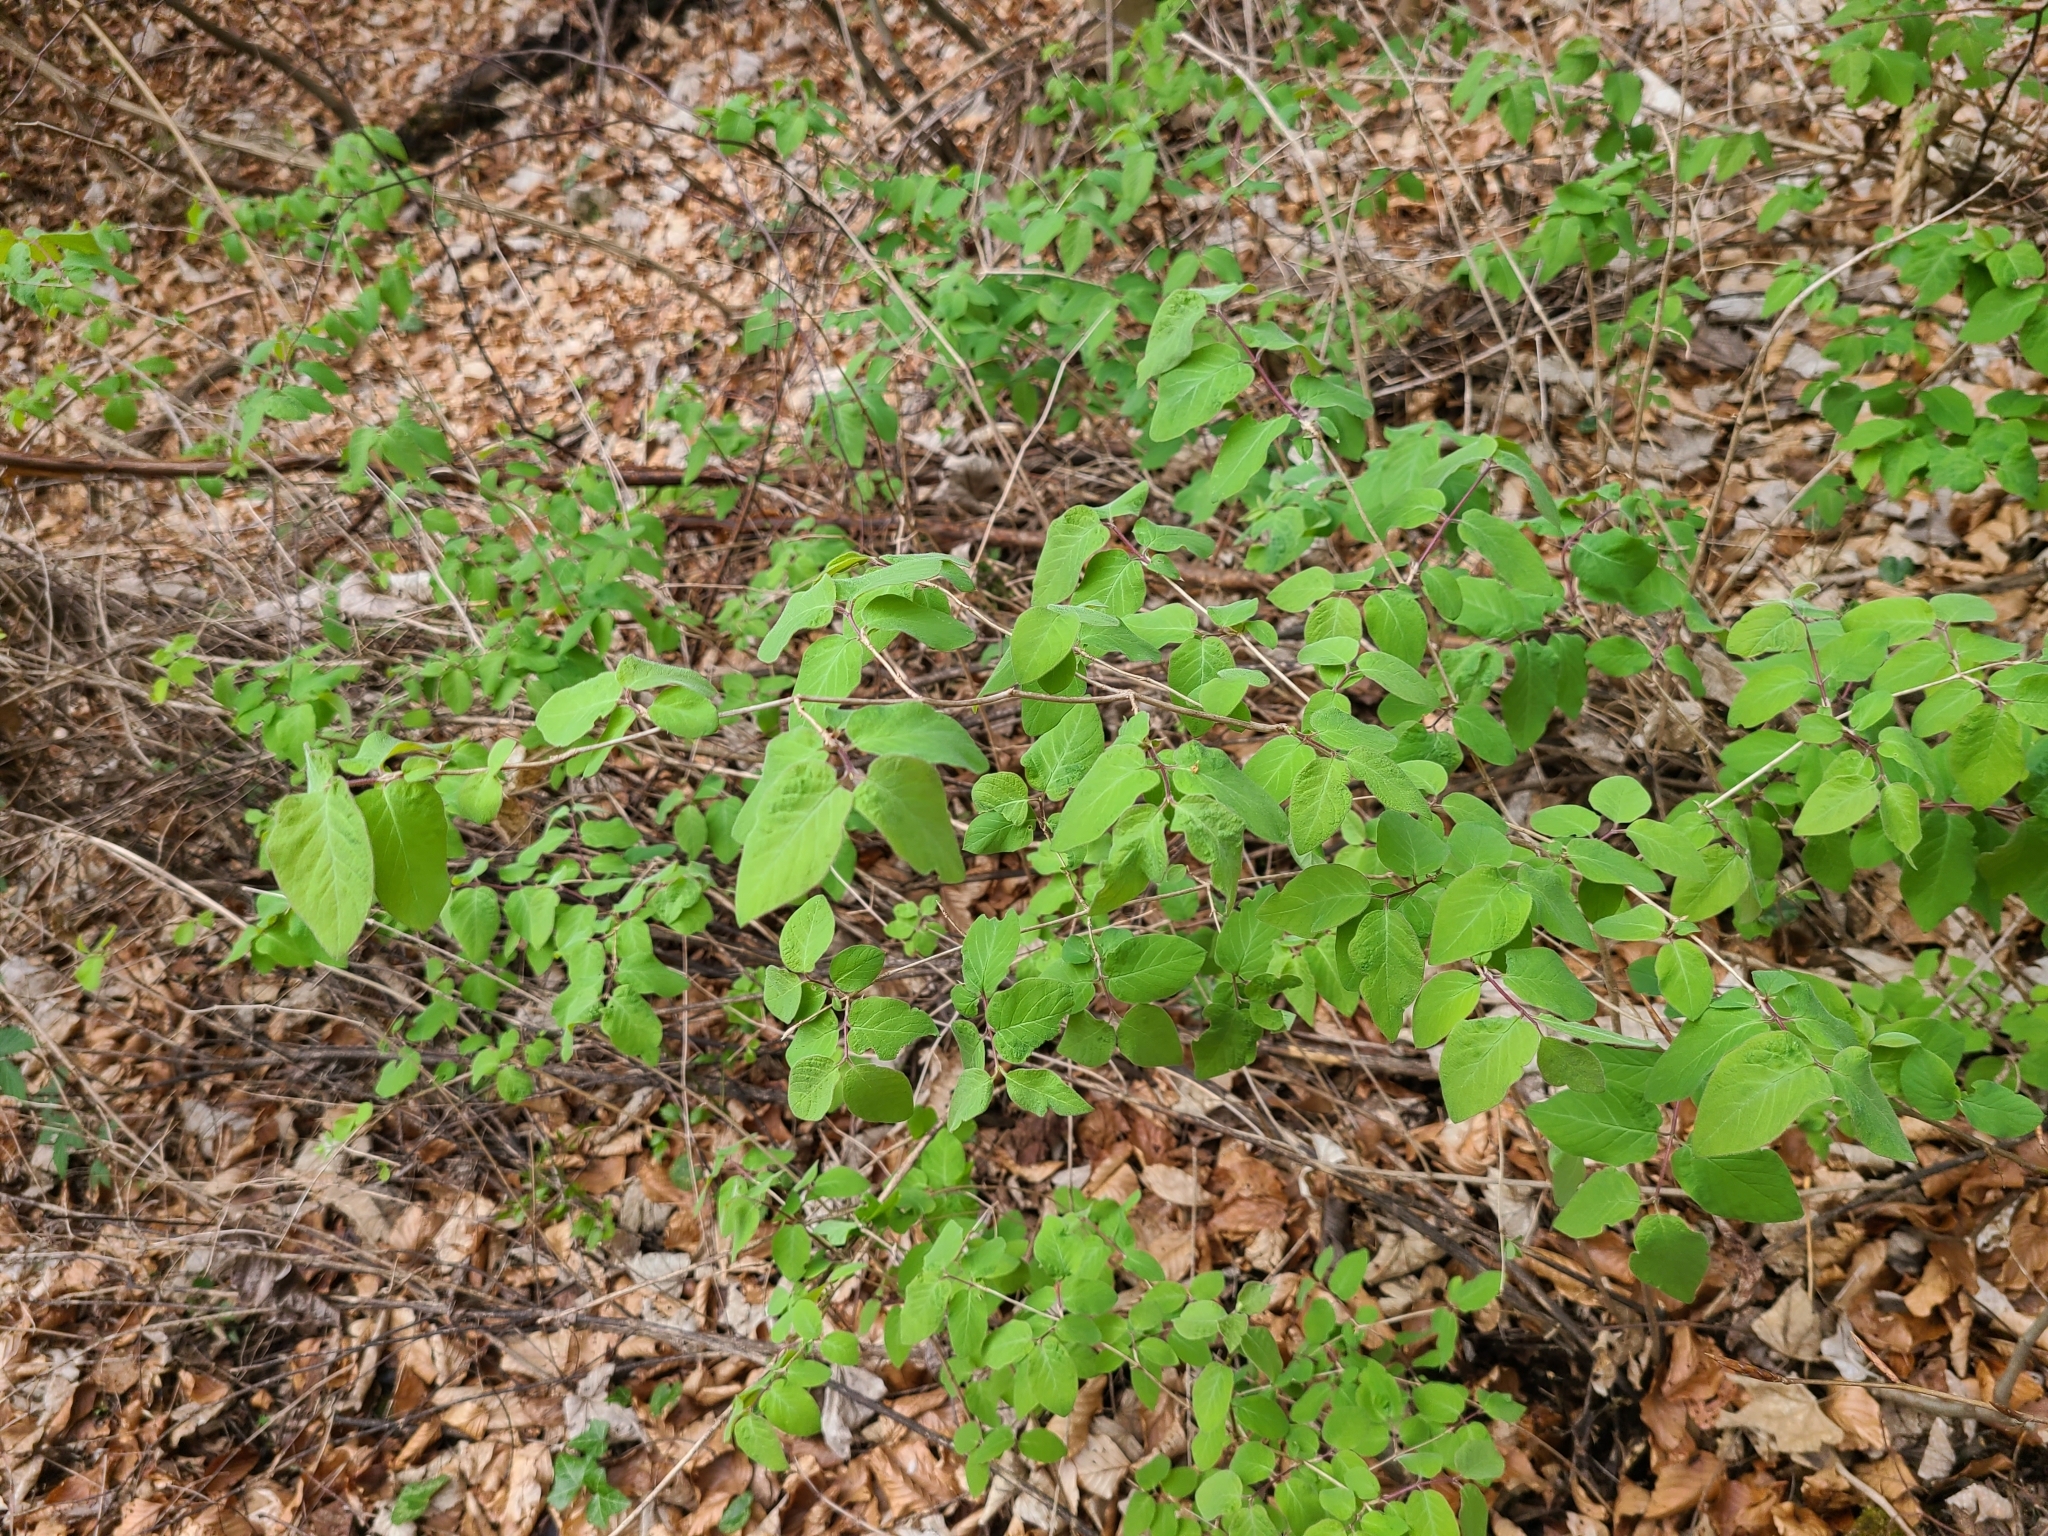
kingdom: Plantae
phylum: Tracheophyta
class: Magnoliopsida
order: Dipsacales
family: Caprifoliaceae
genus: Lonicera
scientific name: Lonicera xylosteum
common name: Fly honeysuckle
